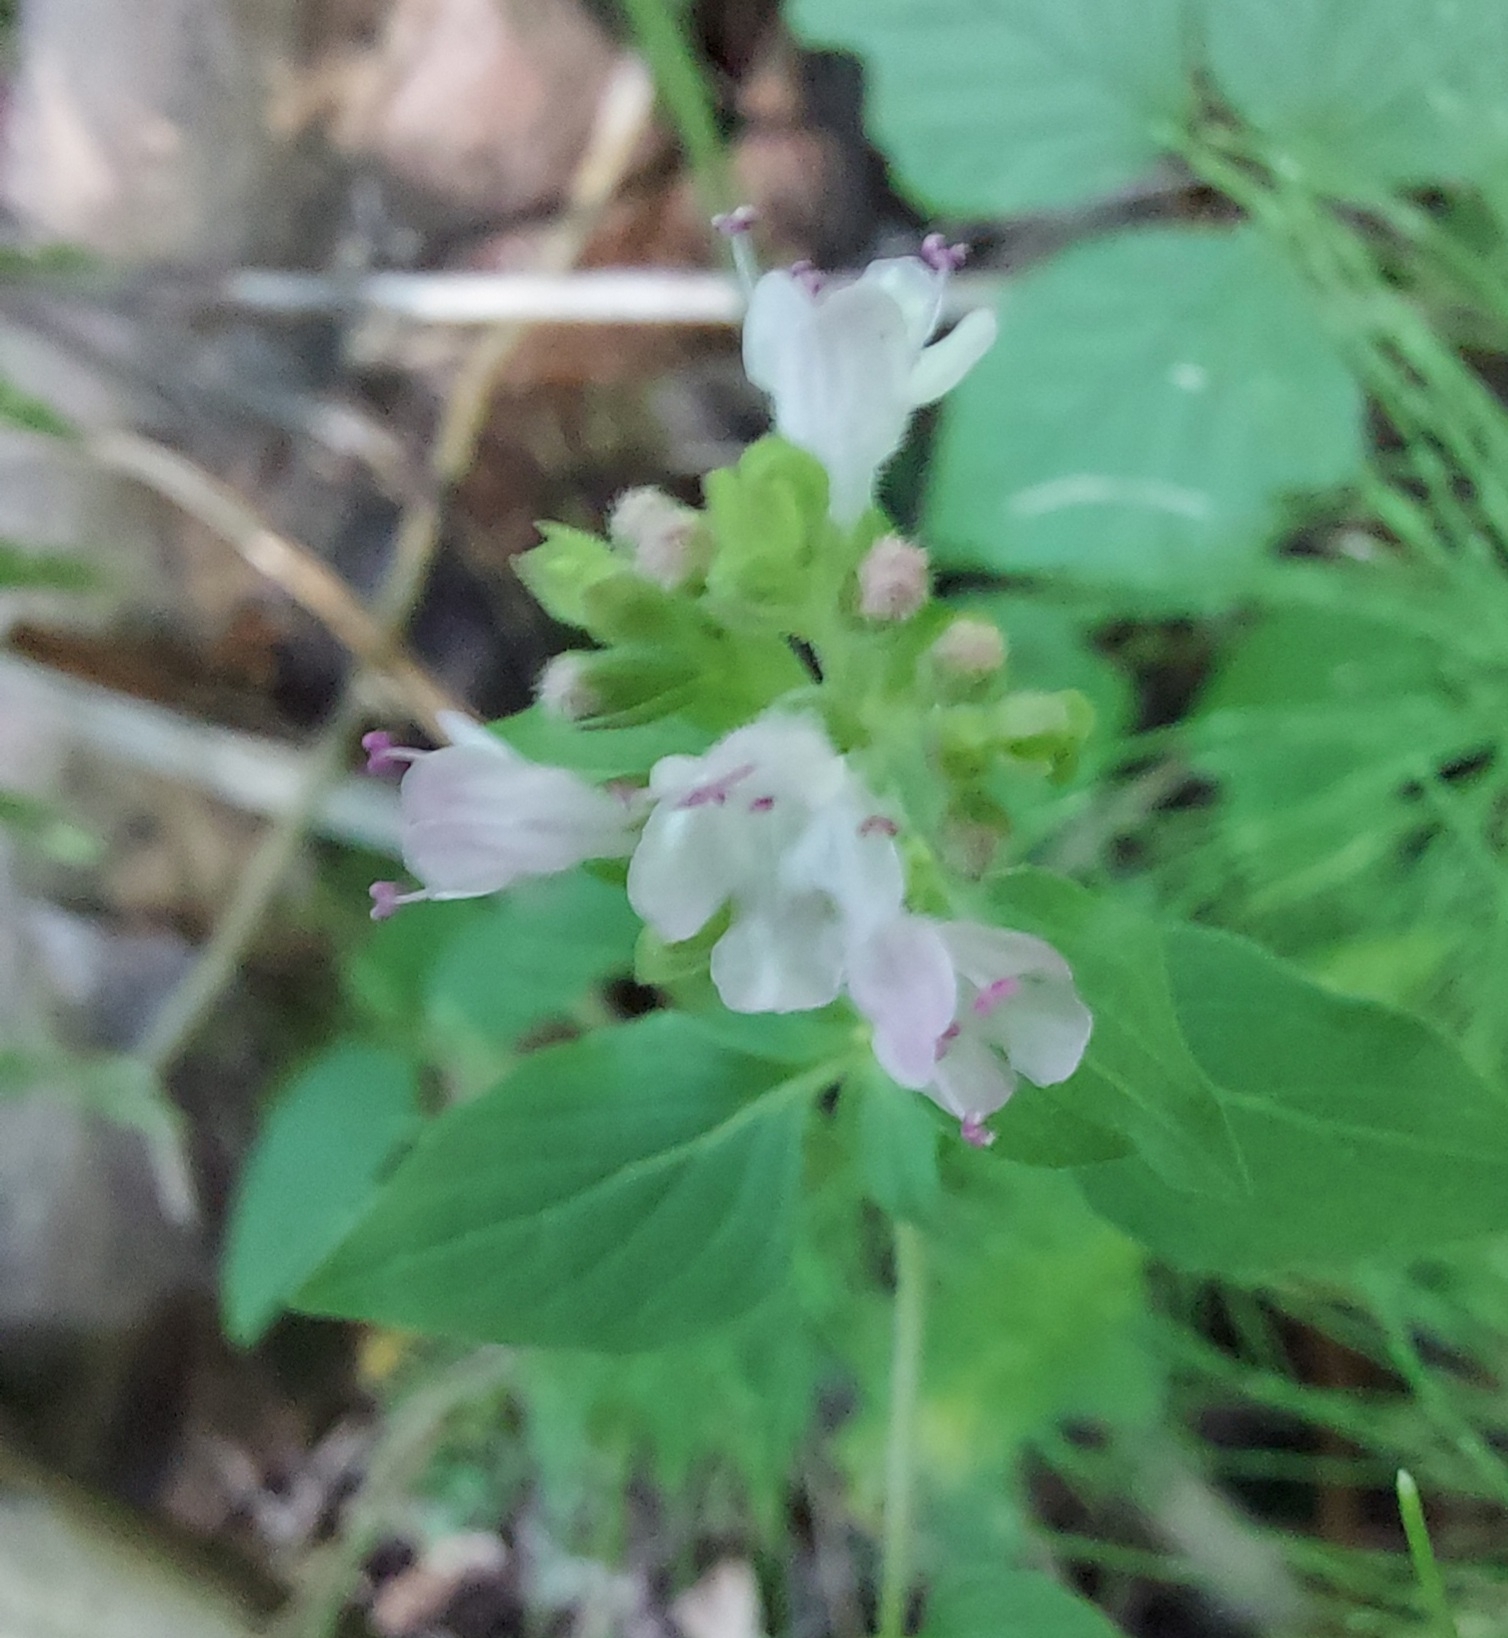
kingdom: Plantae
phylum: Tracheophyta
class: Magnoliopsida
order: Lamiales
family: Lamiaceae
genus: Origanum
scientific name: Origanum vulgare
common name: Wild marjoram
